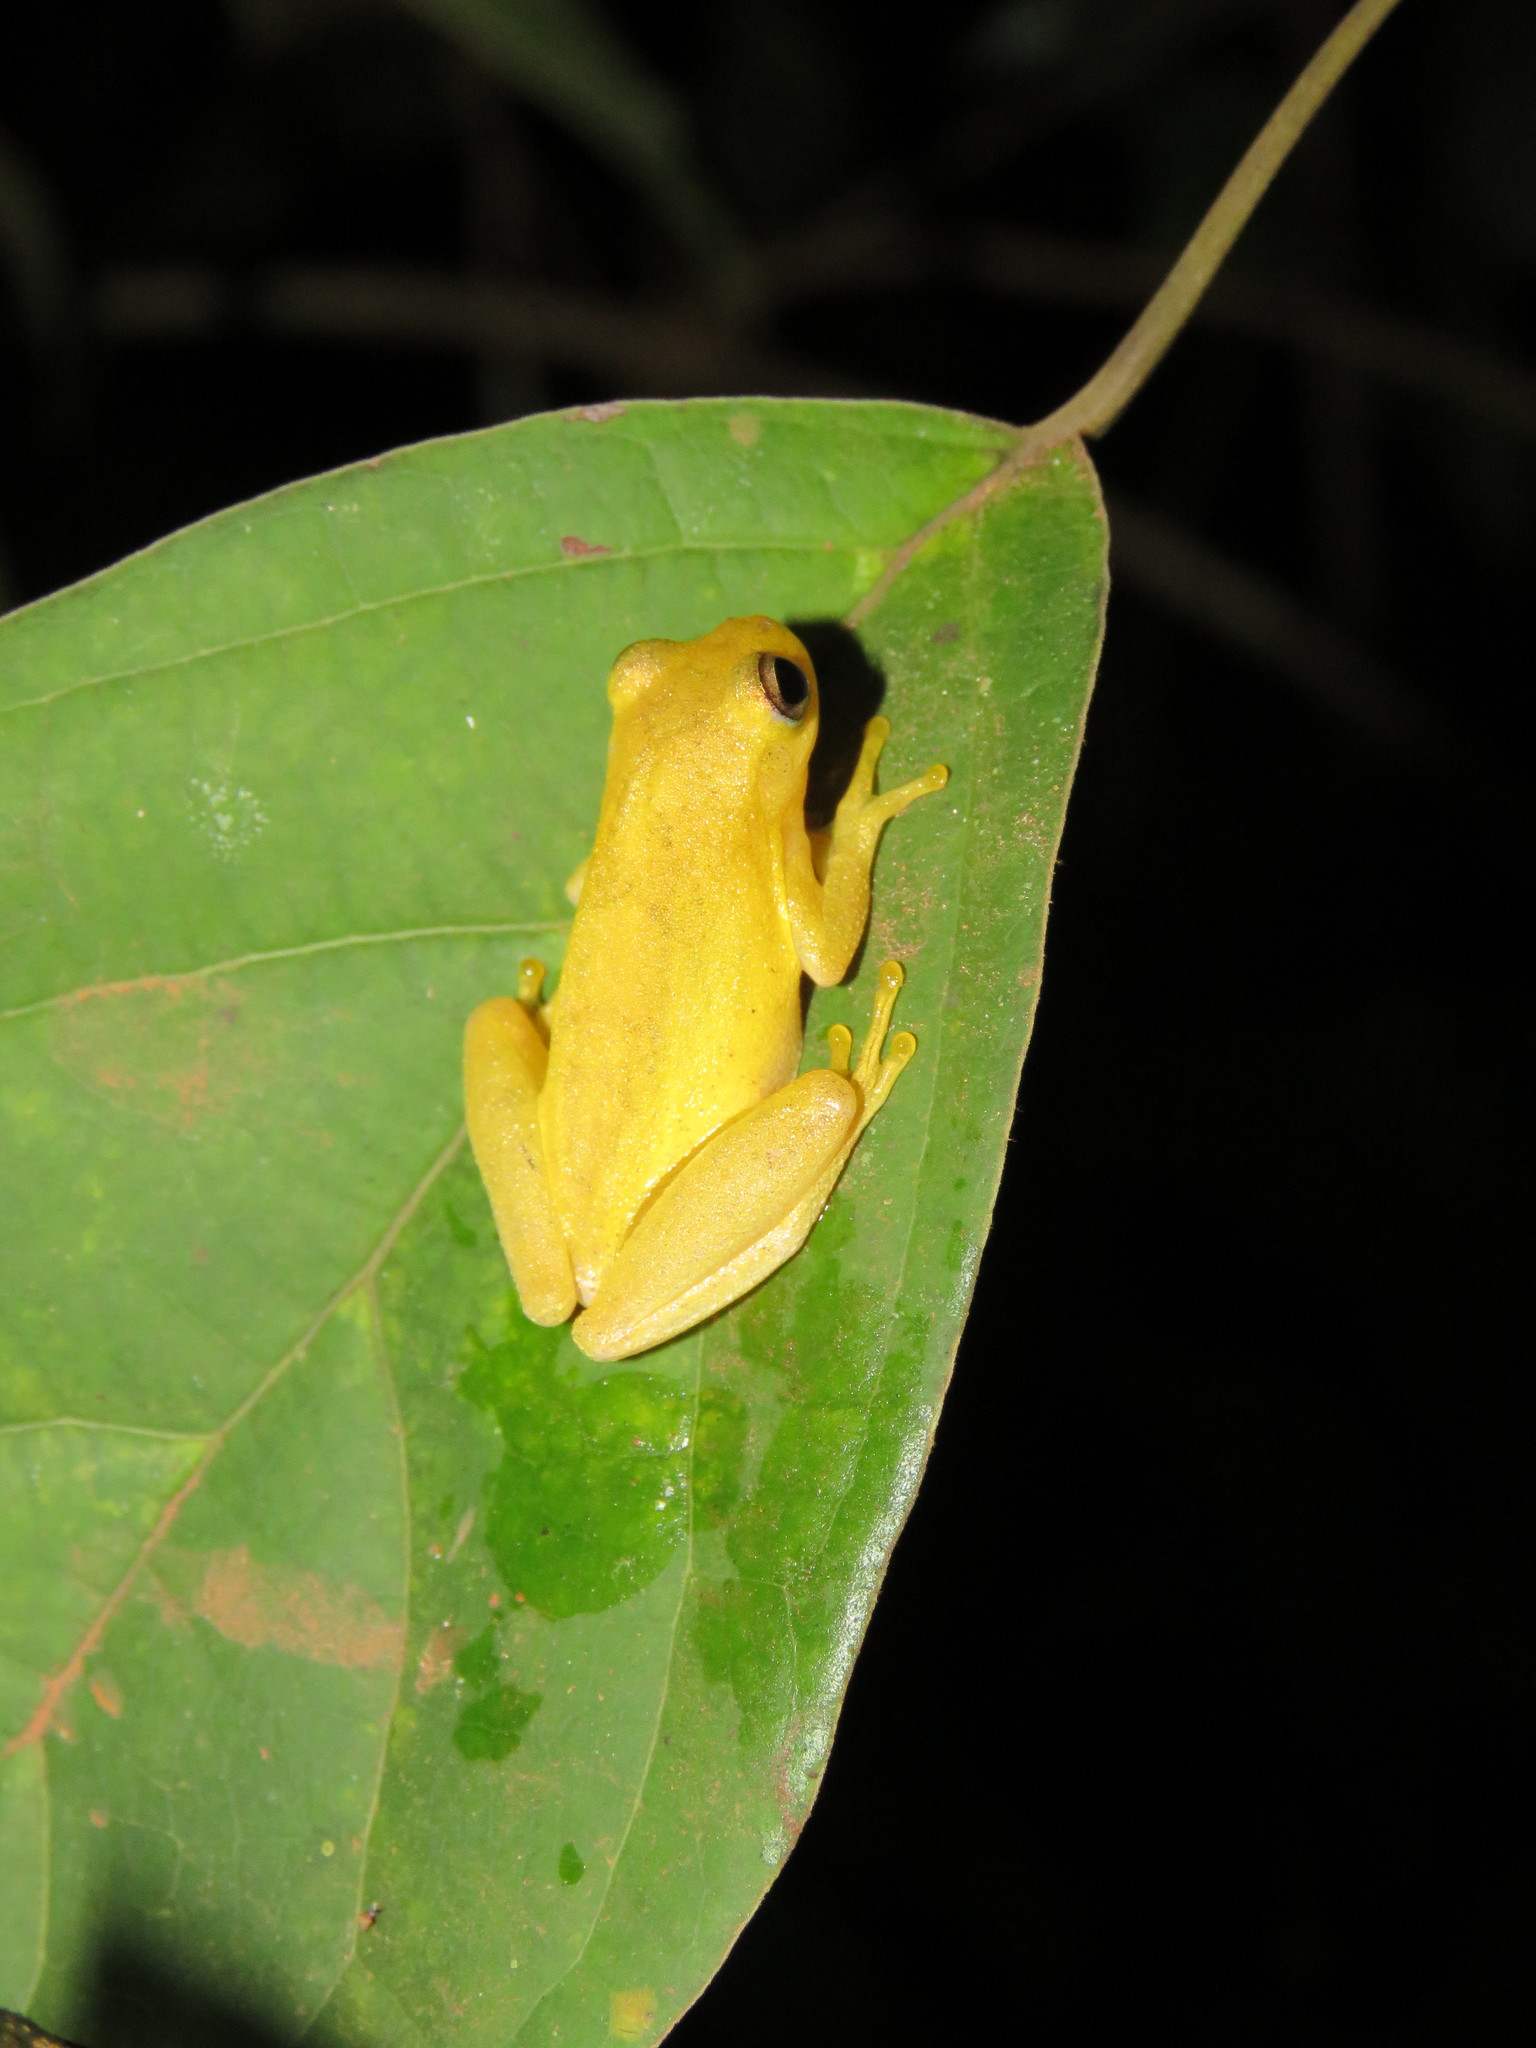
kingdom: Animalia
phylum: Chordata
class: Amphibia
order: Anura
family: Hylidae
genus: Dendropsophus
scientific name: Dendropsophus minutus
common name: Lesser treefrog
